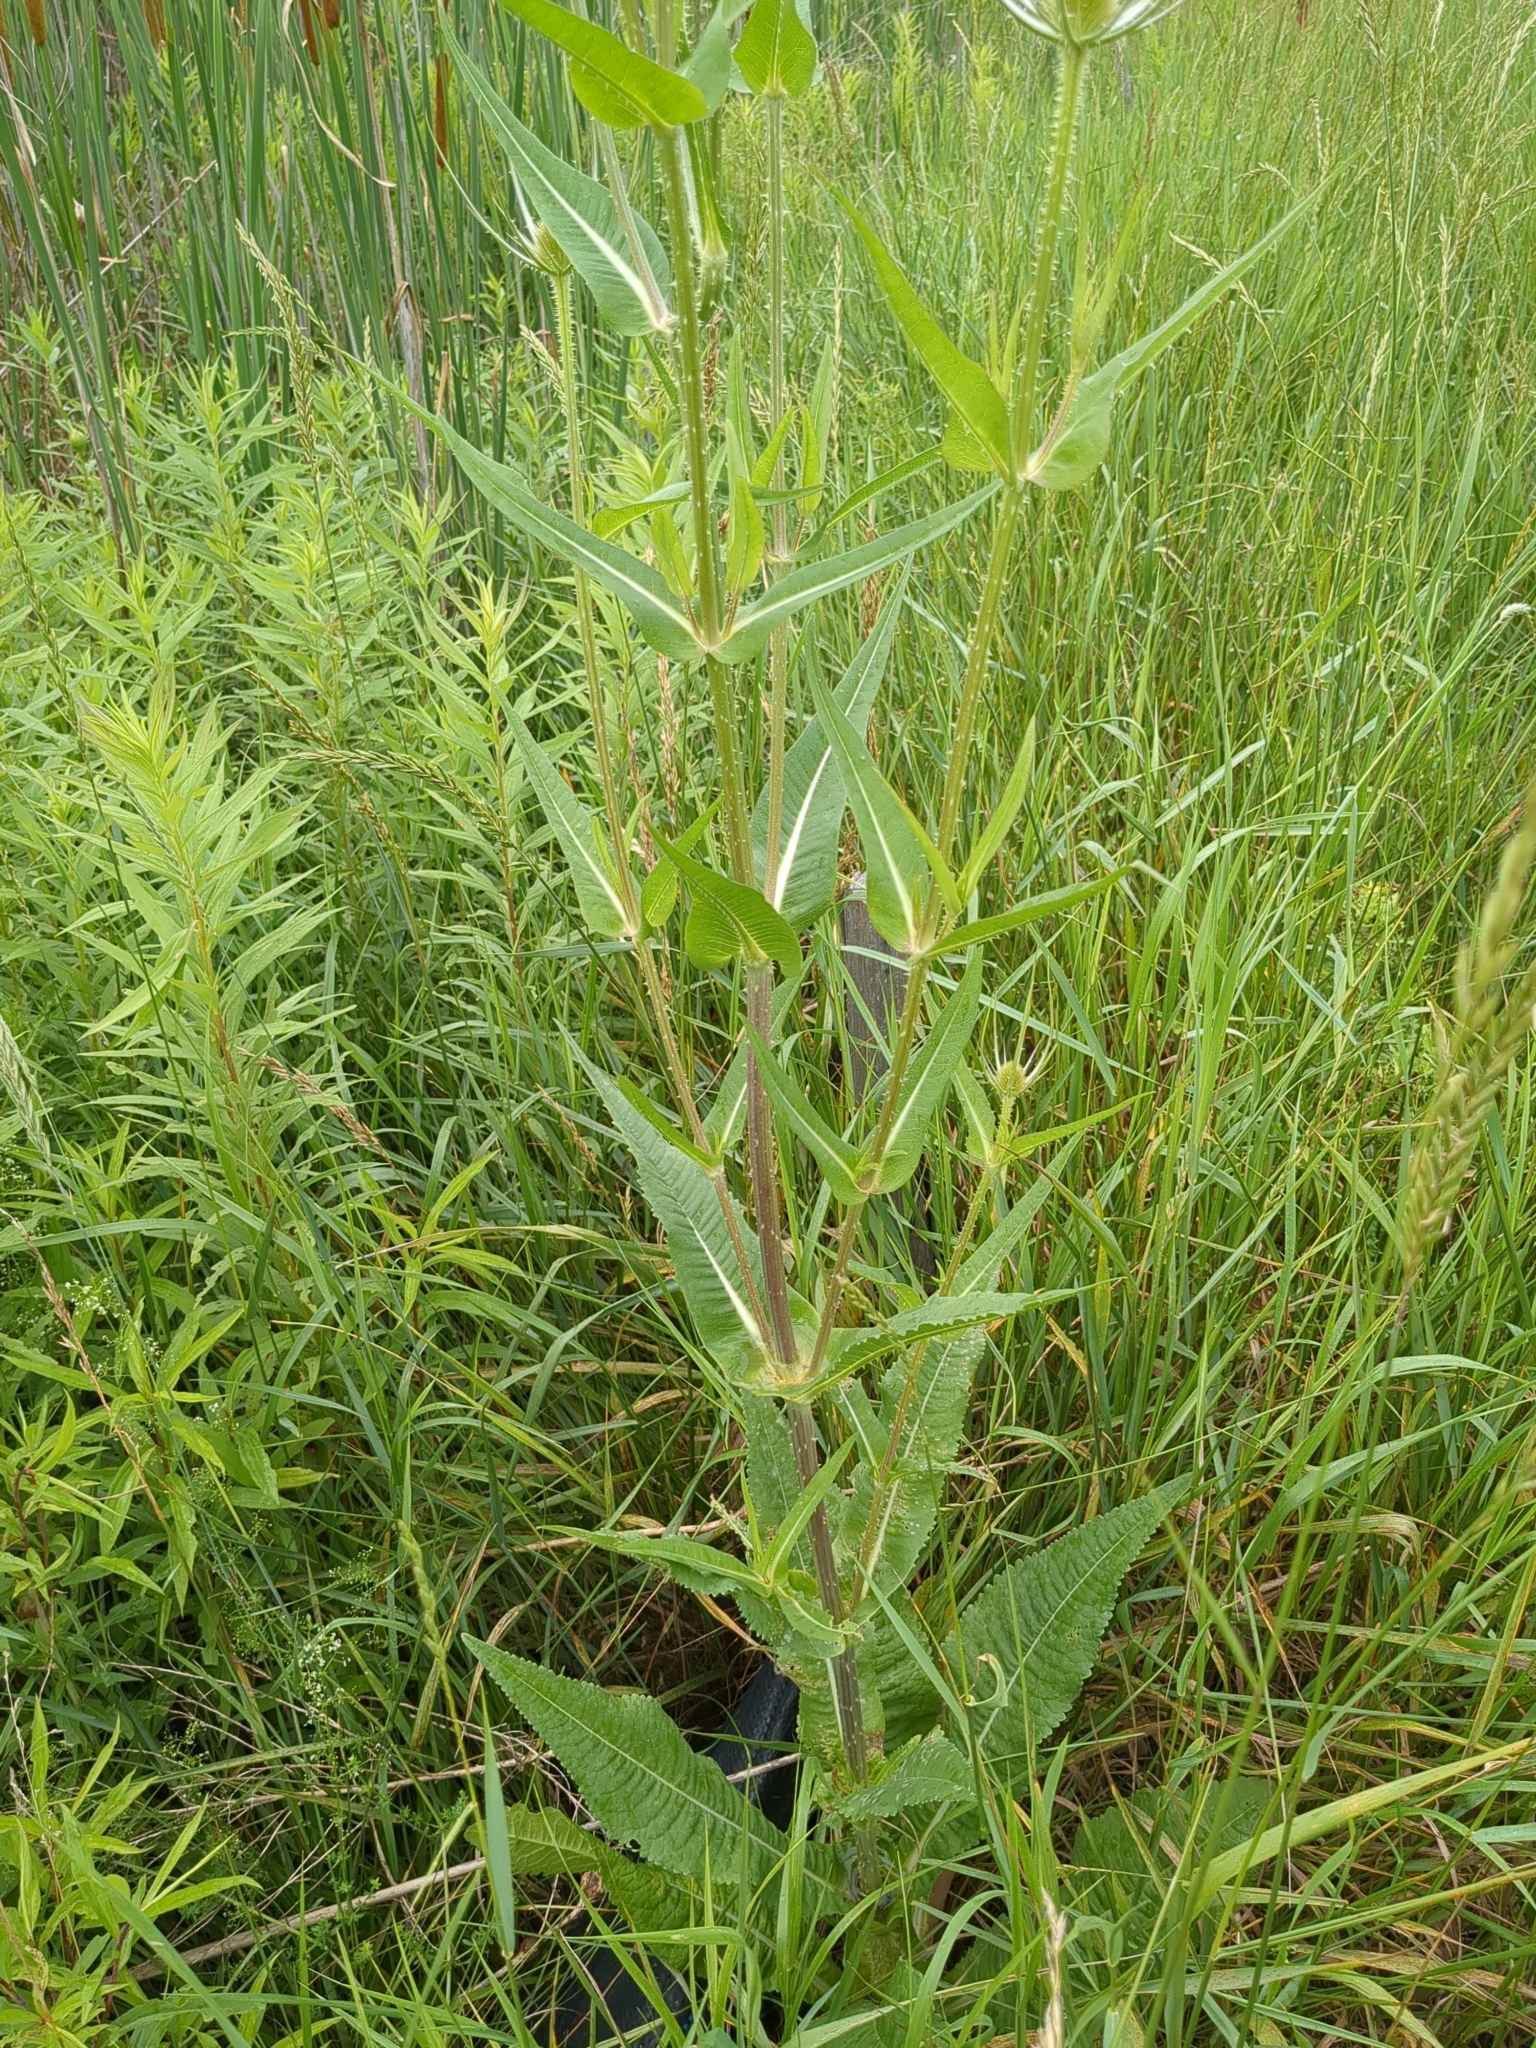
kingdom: Plantae
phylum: Tracheophyta
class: Magnoliopsida
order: Dipsacales
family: Caprifoliaceae
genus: Dipsacus
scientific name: Dipsacus fullonum
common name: Teasel
